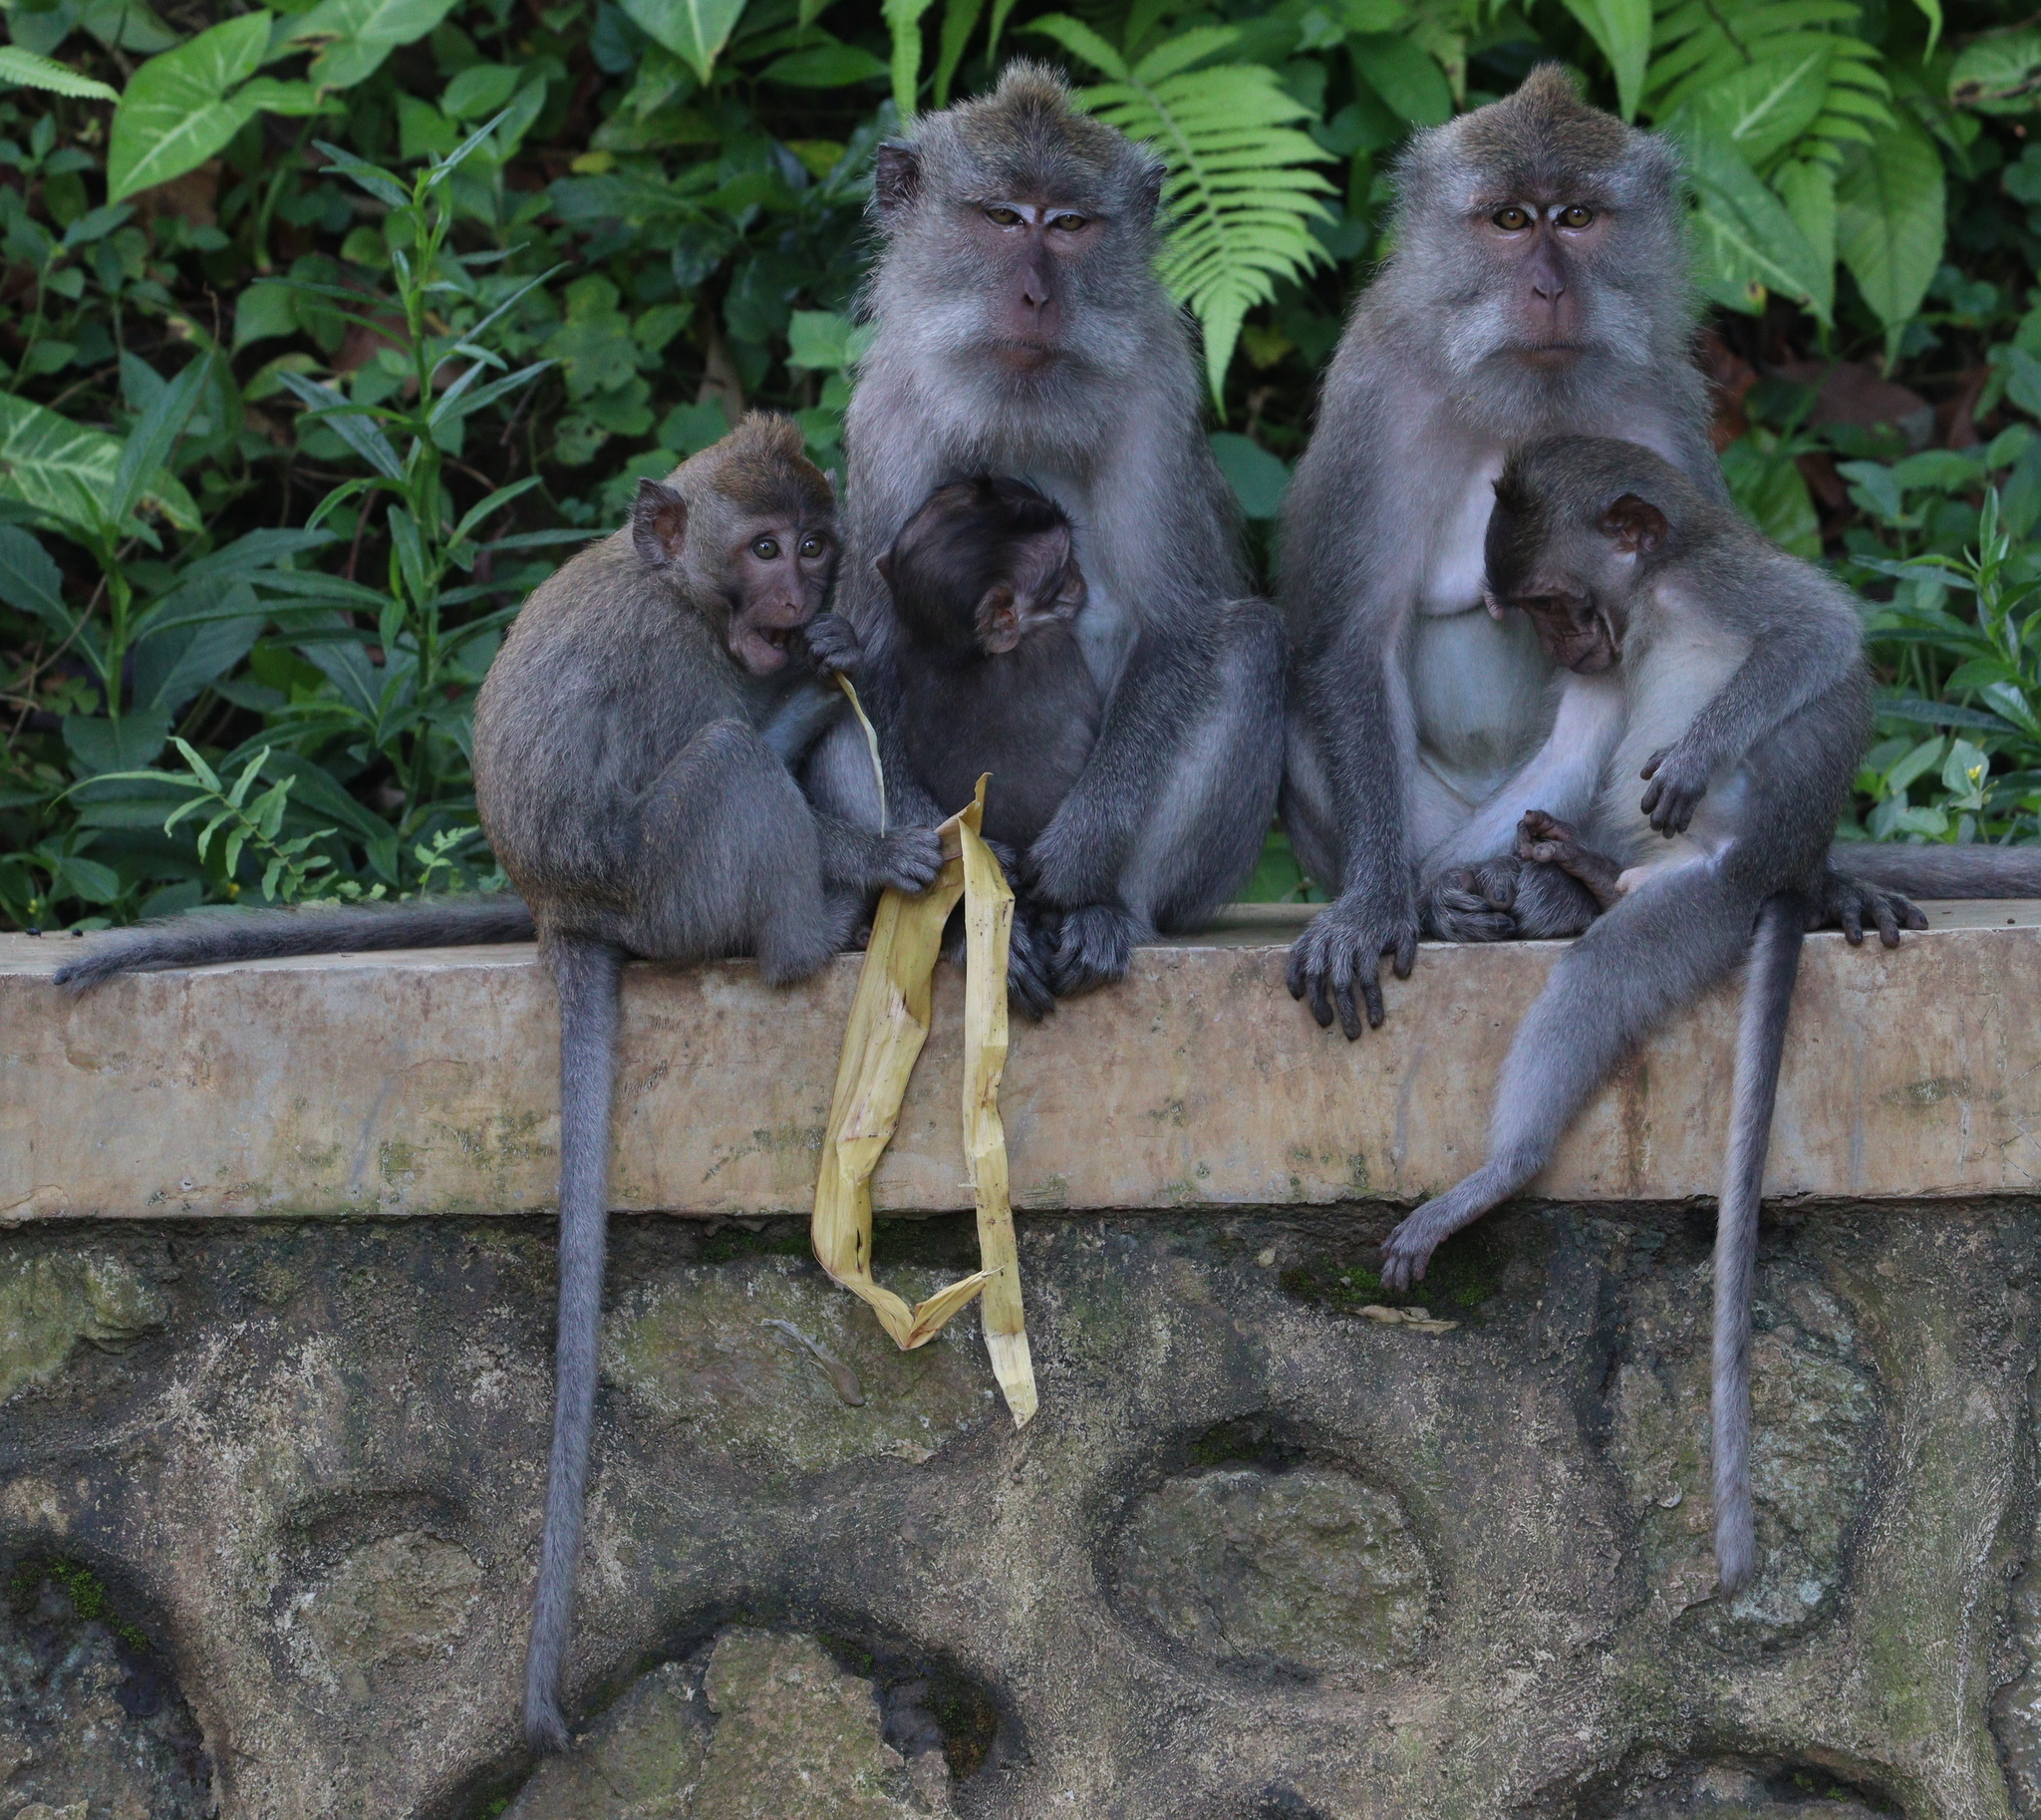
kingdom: Animalia
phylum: Chordata
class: Mammalia
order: Primates
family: Cercopithecidae
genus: Macaca
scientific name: Macaca fascicularis
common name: Crab-eating macaque
